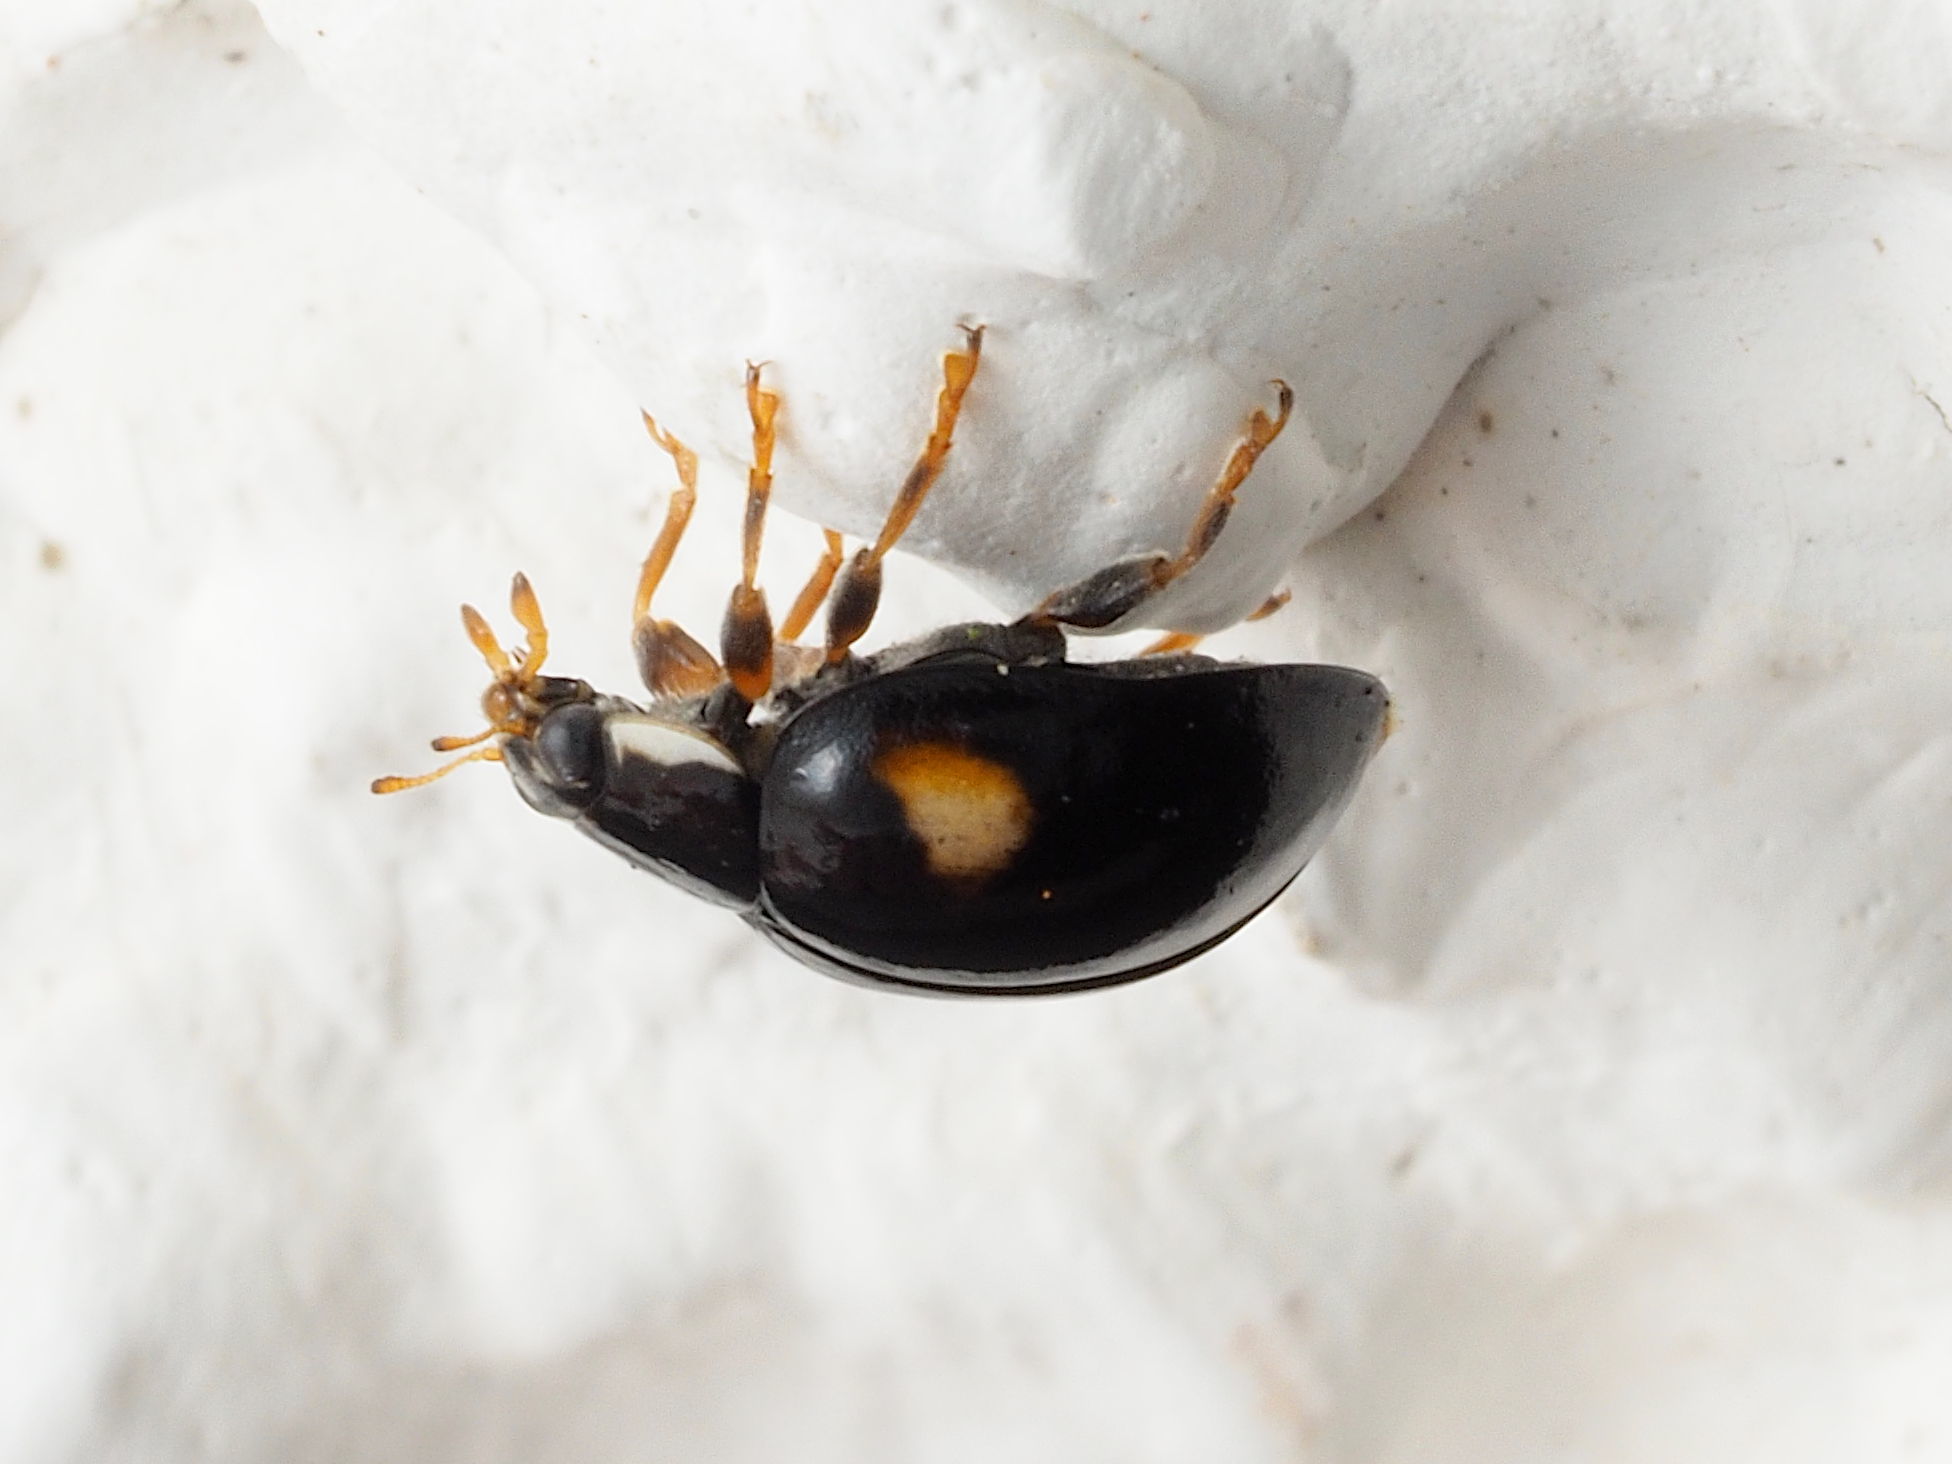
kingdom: Animalia
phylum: Arthropoda
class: Insecta
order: Coleoptera
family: Coccinellidae
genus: Adalia
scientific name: Adalia decempunctata
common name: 10-spot ladybird
